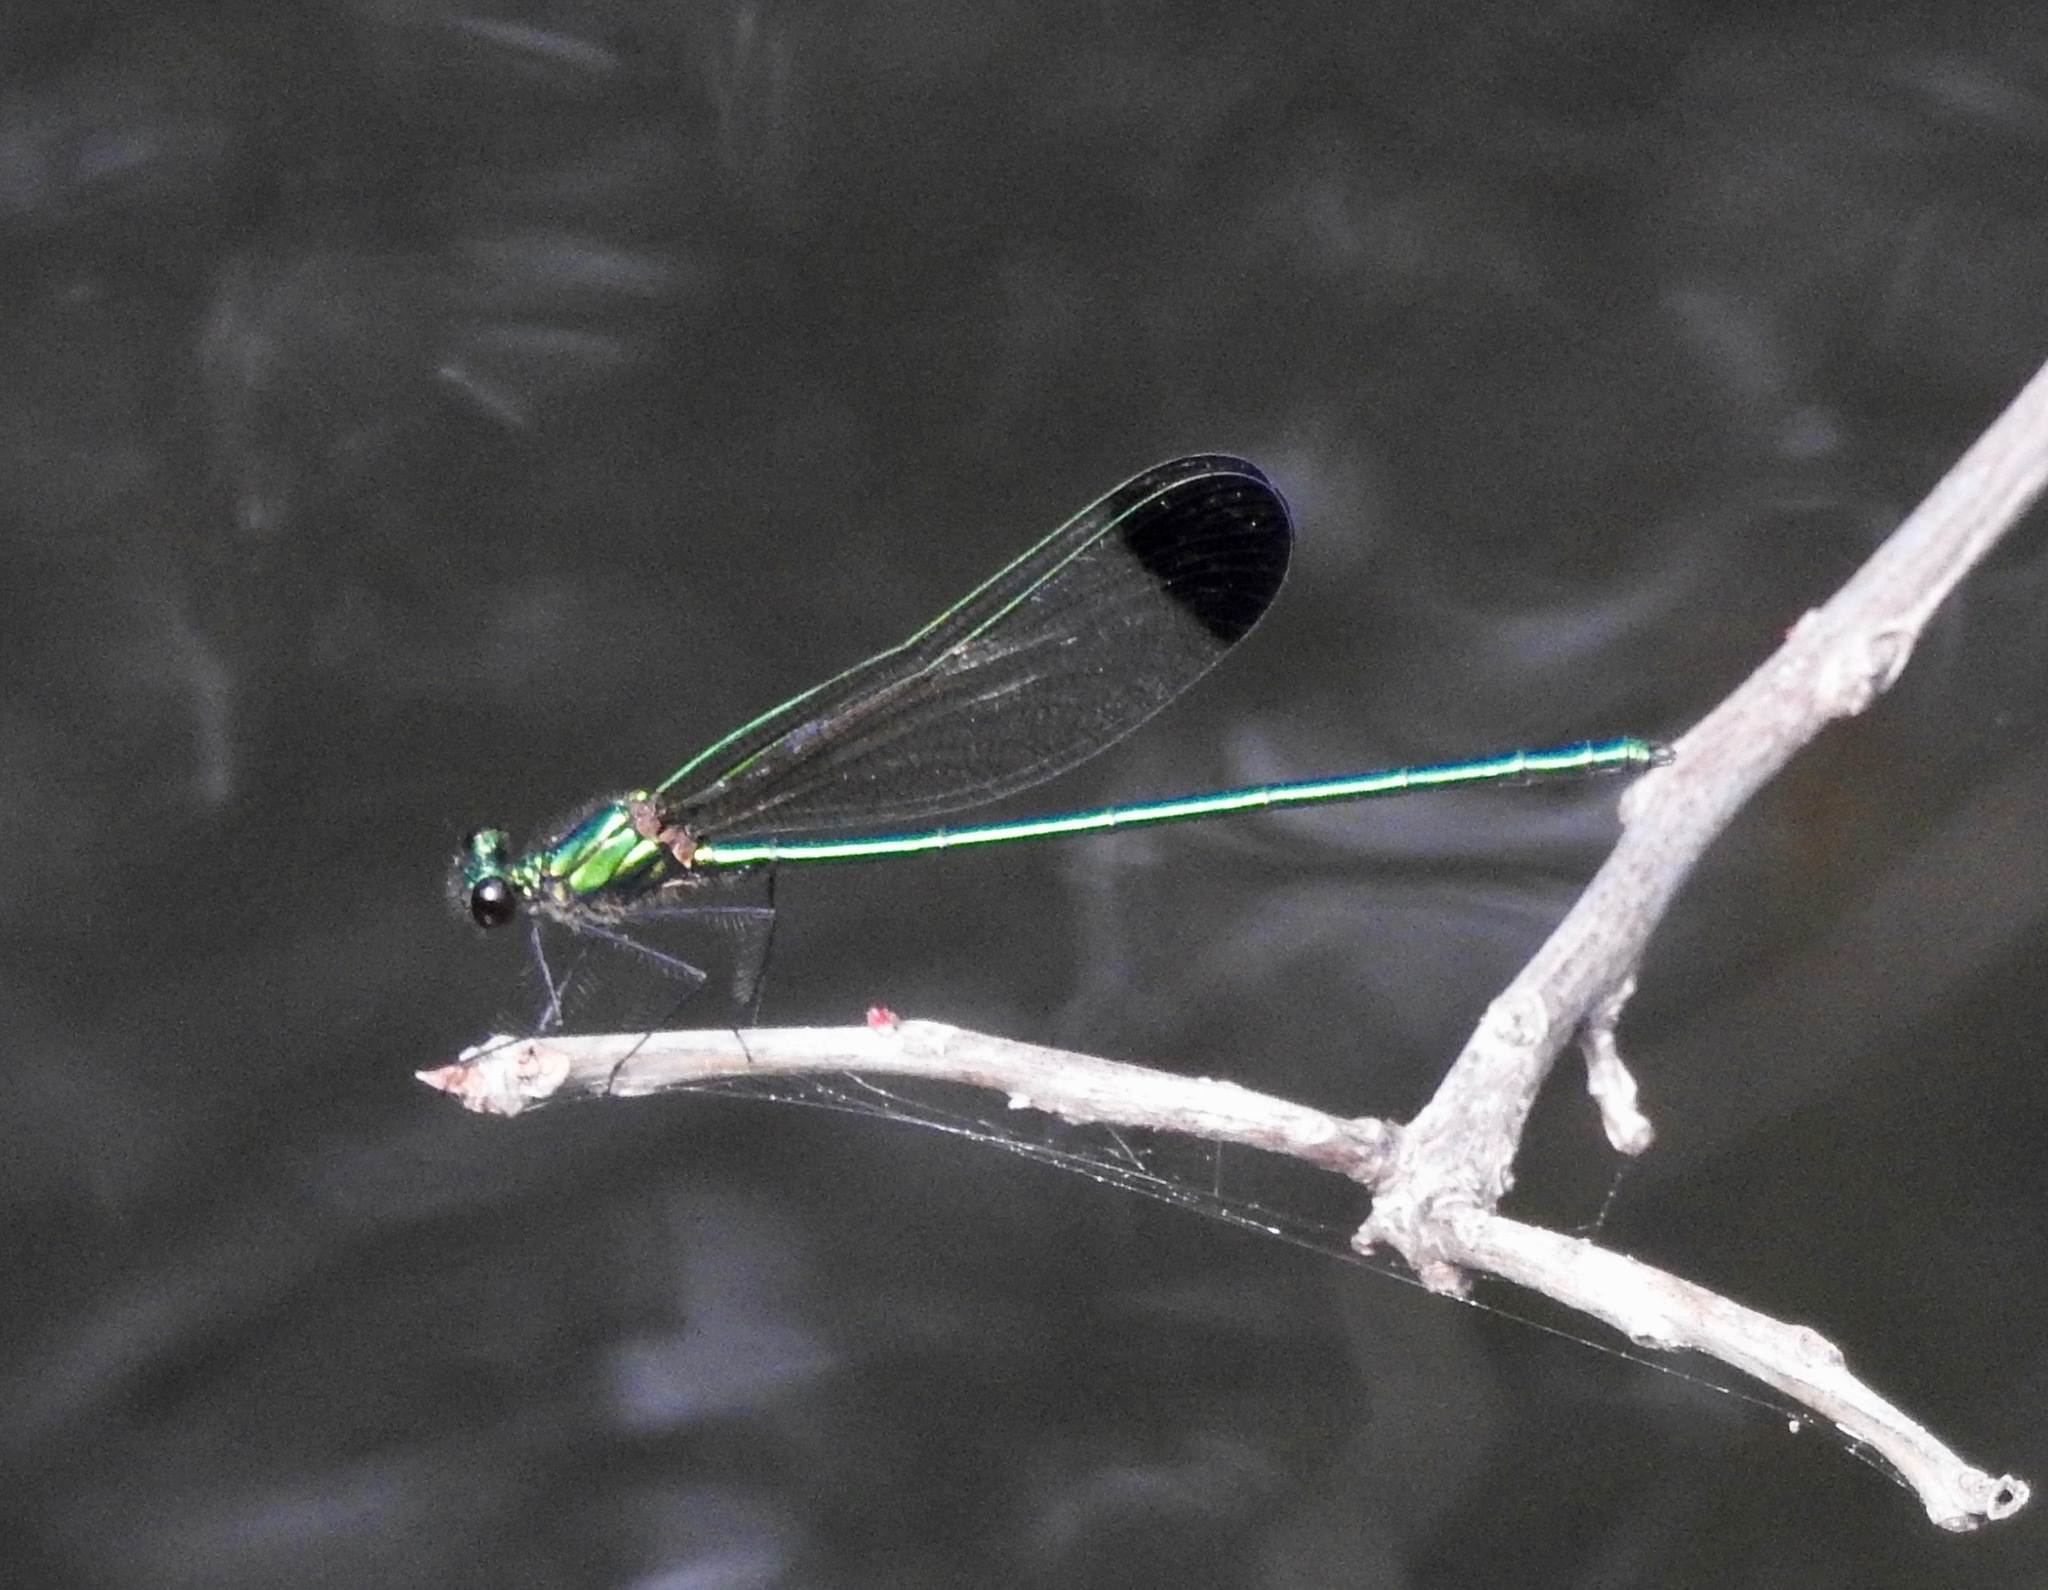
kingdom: Animalia
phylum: Arthropoda
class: Insecta
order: Odonata
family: Calopterygidae
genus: Calopteryx
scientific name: Calopteryx dimidiata
